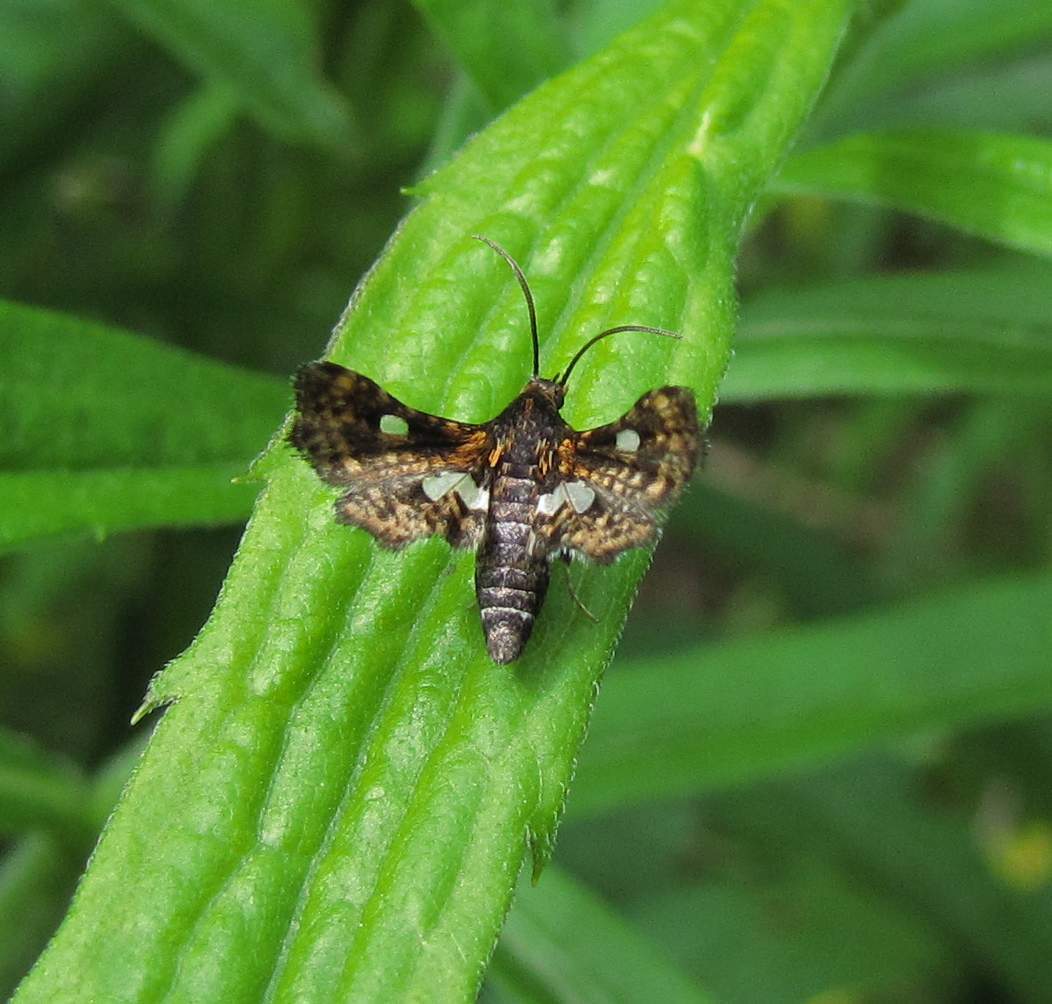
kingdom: Animalia
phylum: Arthropoda
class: Insecta
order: Lepidoptera
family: Thyrididae
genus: Thyris
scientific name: Thyris maculata
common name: Spotted thyris moth
